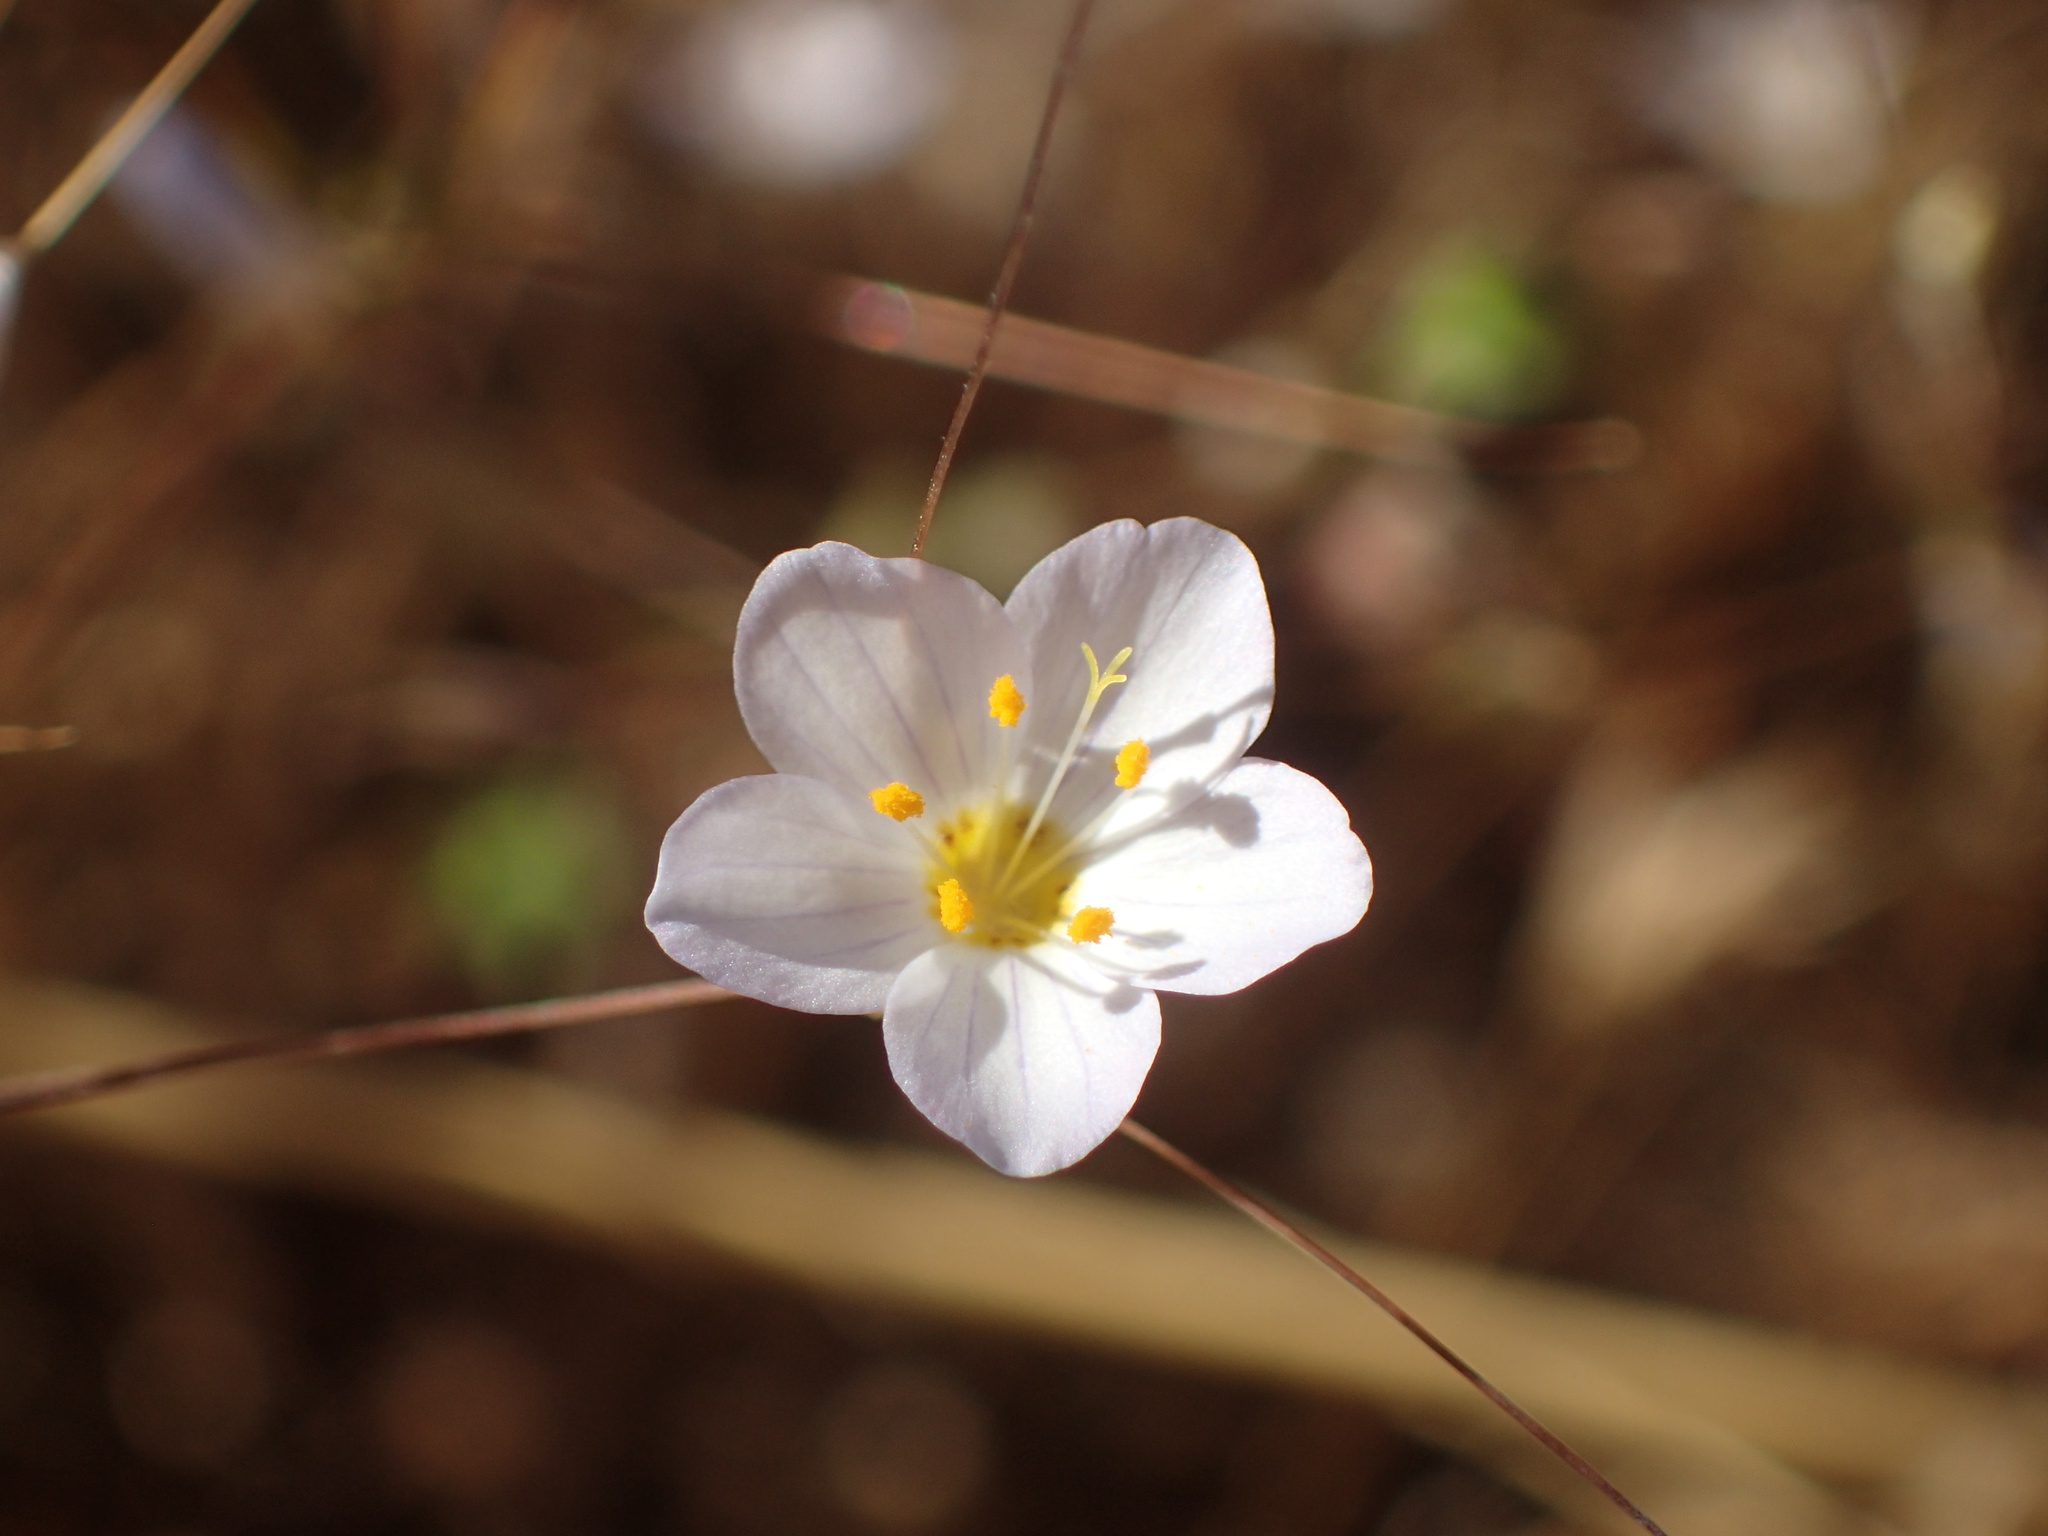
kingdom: Plantae
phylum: Tracheophyta
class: Magnoliopsida
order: Ericales
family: Polemoniaceae
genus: Leptosiphon
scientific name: Leptosiphon liniflorus
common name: Narrowflower flaxflower
